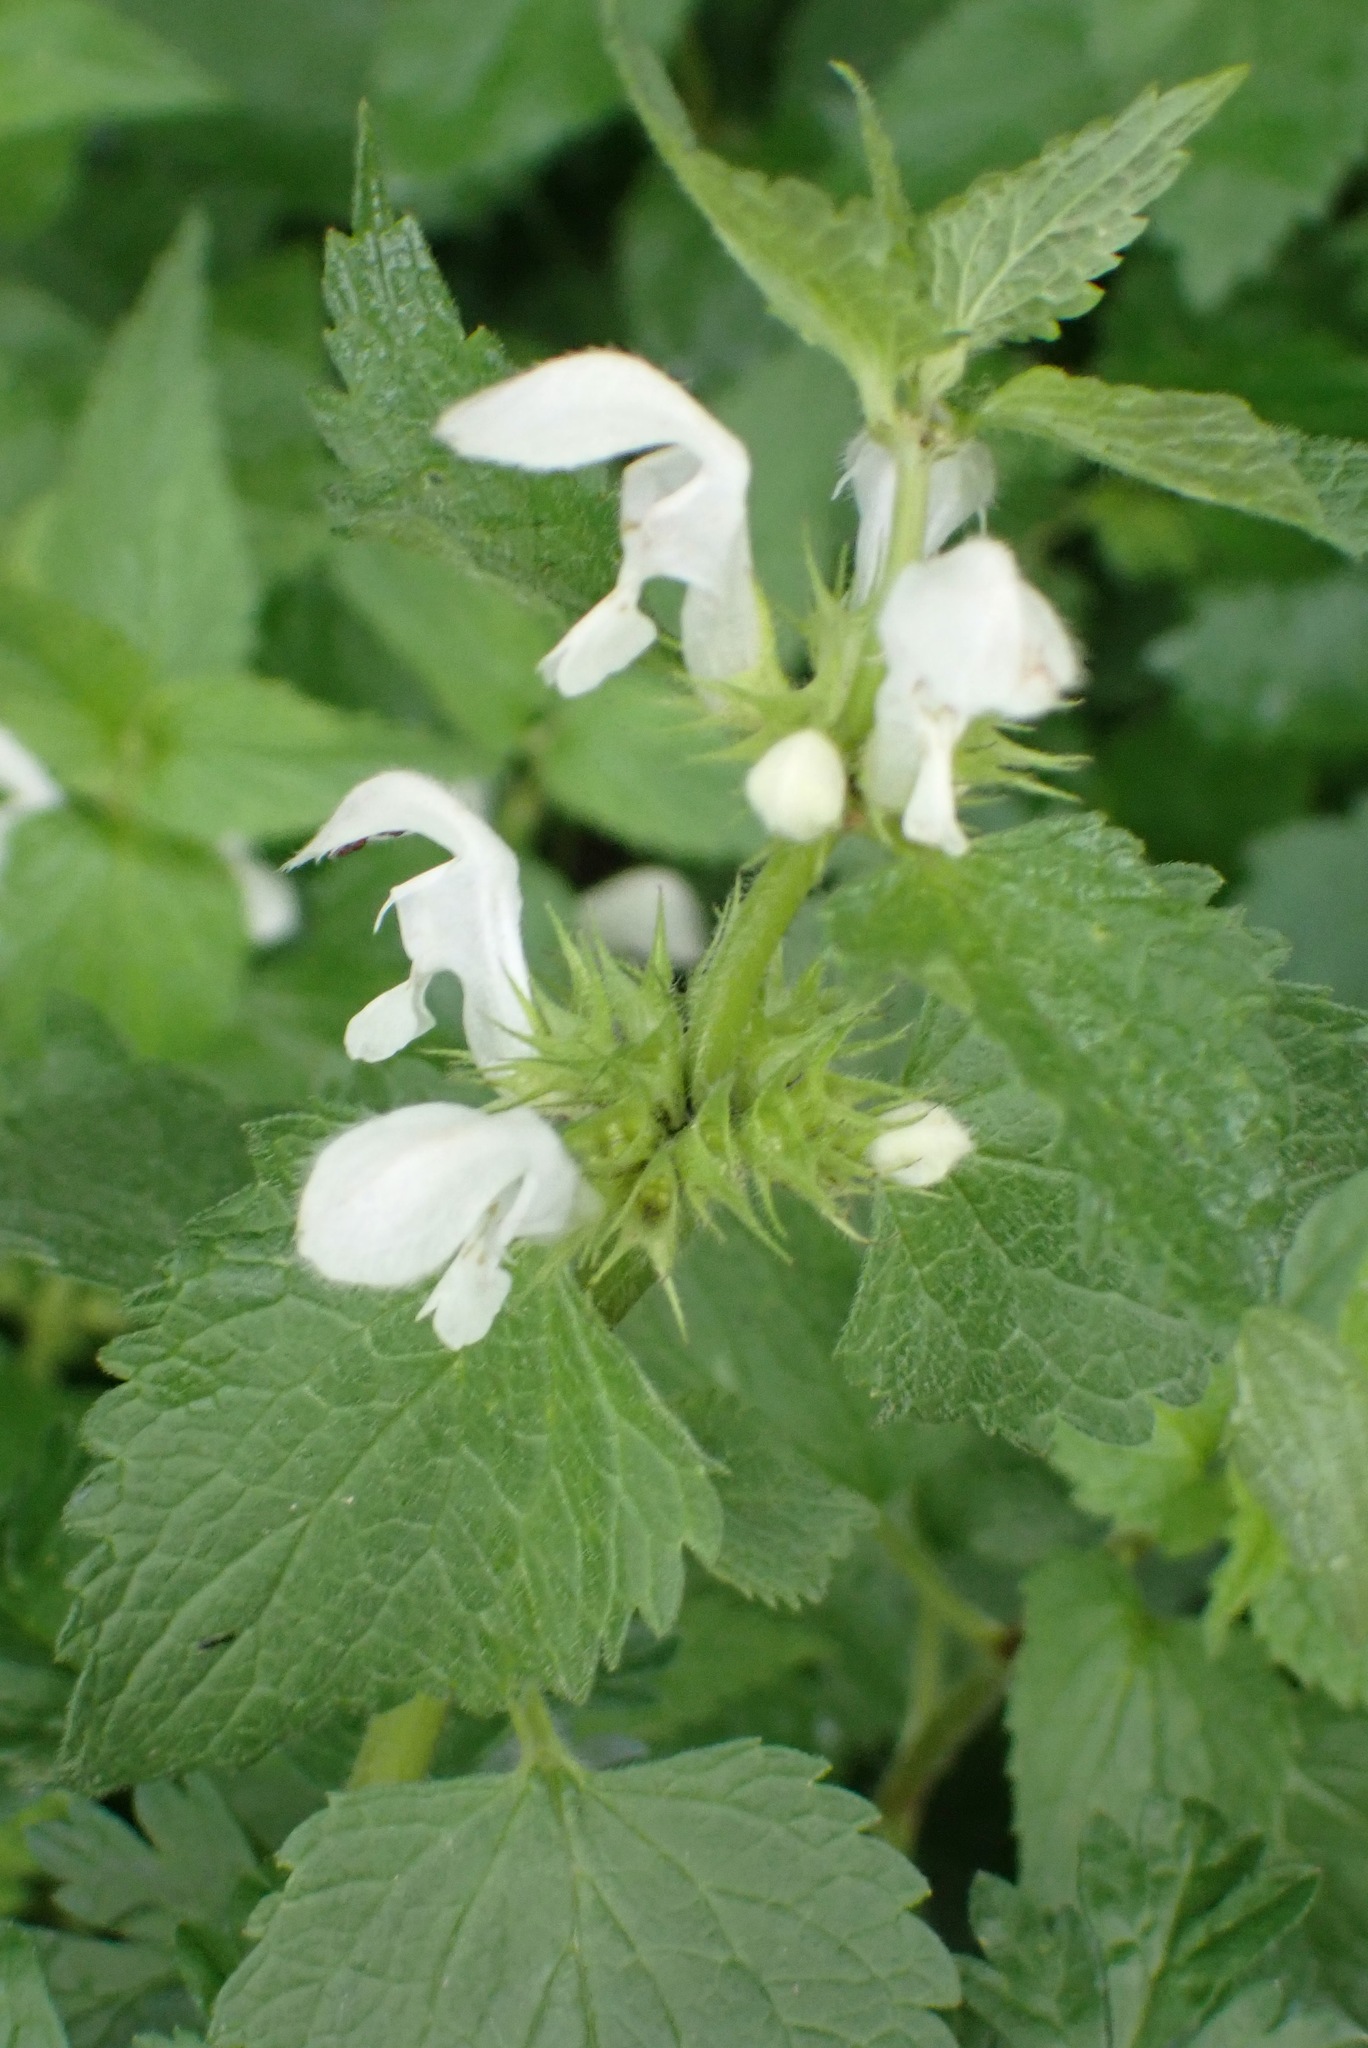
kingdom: Plantae
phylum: Tracheophyta
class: Magnoliopsida
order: Lamiales
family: Lamiaceae
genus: Lamium
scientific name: Lamium album
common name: White dead-nettle
